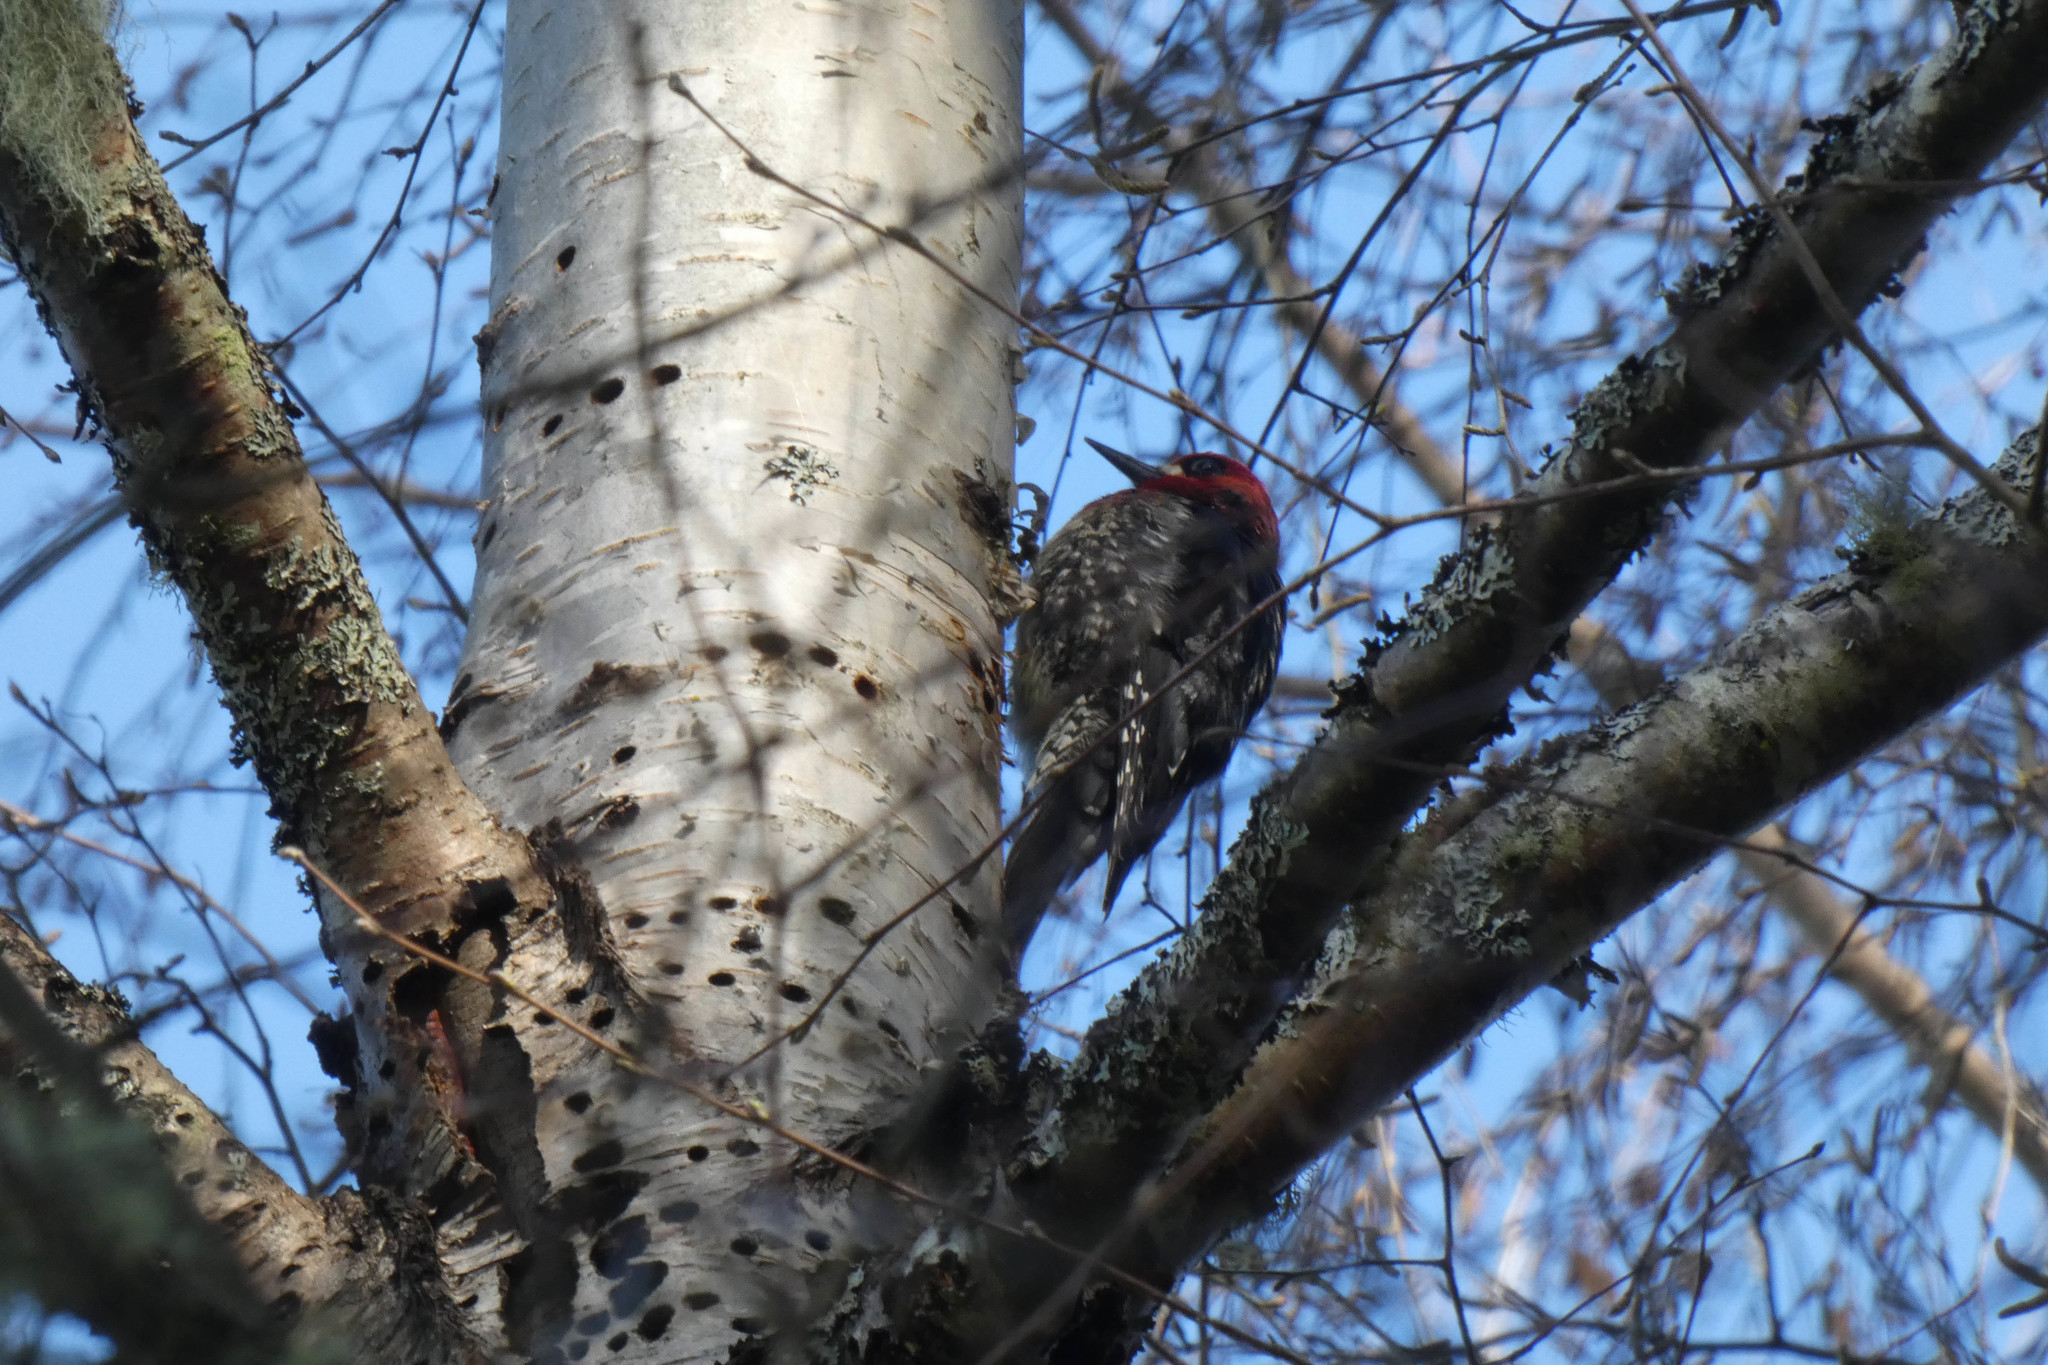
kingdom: Animalia
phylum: Chordata
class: Aves
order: Piciformes
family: Picidae
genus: Sphyrapicus
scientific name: Sphyrapicus ruber
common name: Red-breasted sapsucker
